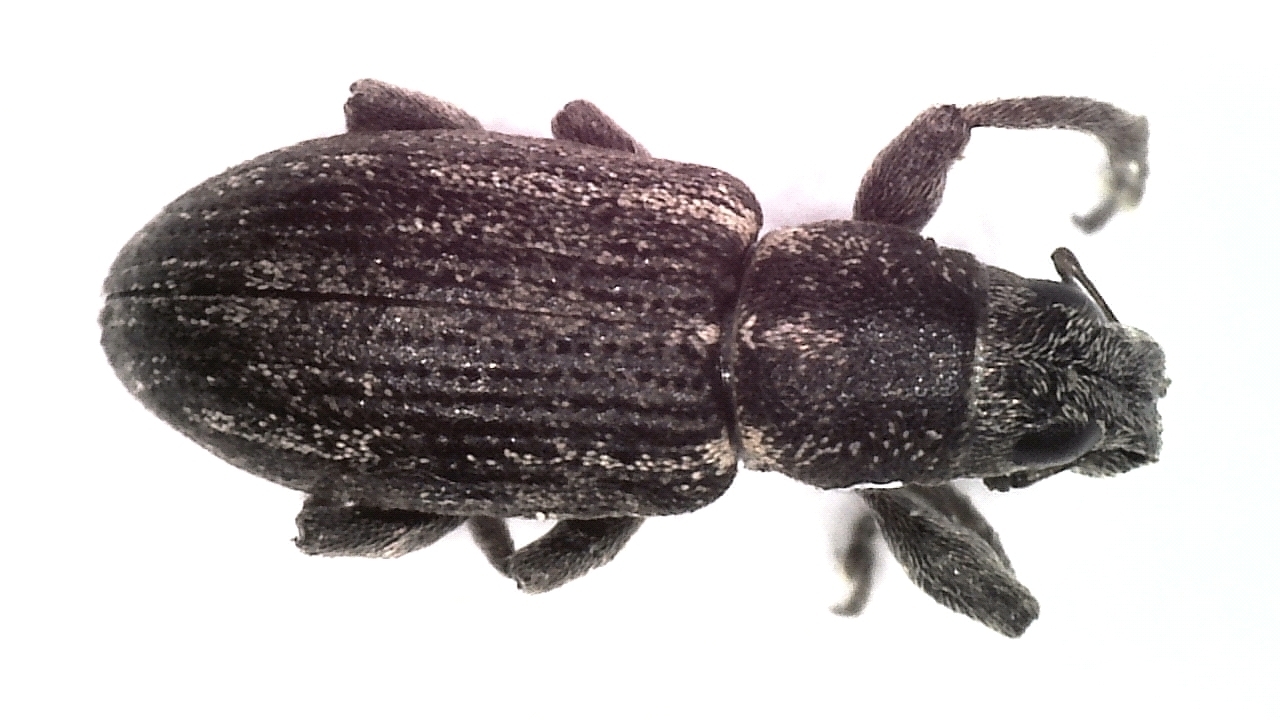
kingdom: Animalia
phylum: Arthropoda
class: Insecta
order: Coleoptera
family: Curculionidae
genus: Sitona
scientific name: Sitona inops
